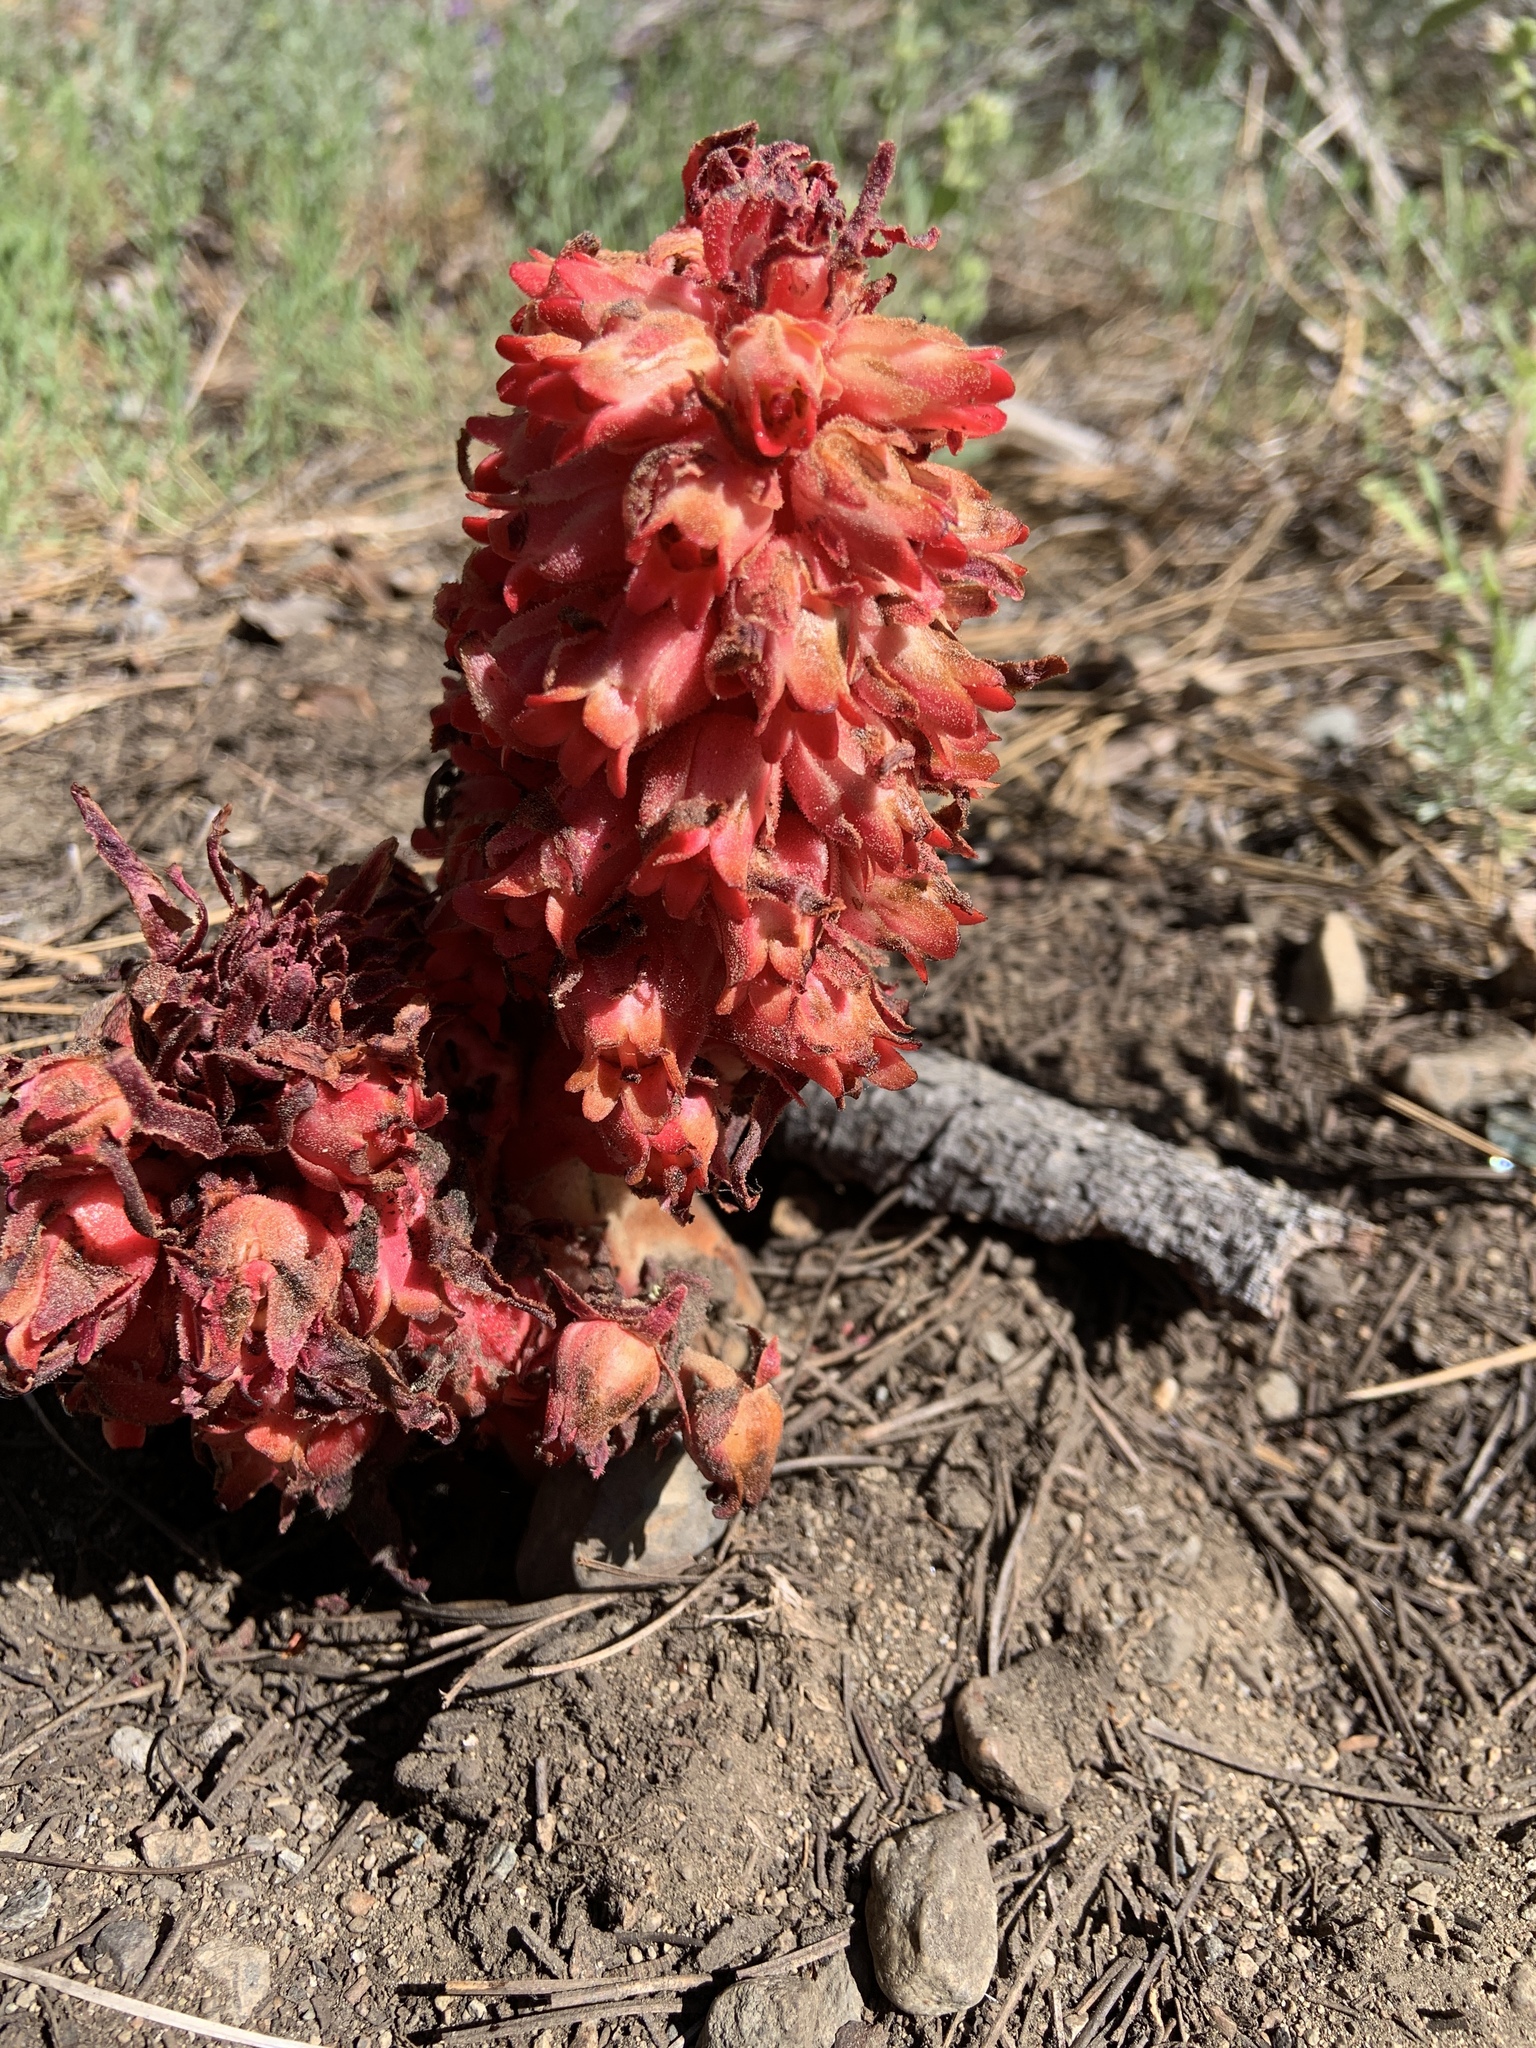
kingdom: Plantae
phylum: Tracheophyta
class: Magnoliopsida
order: Ericales
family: Ericaceae
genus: Sarcodes
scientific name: Sarcodes sanguinea
